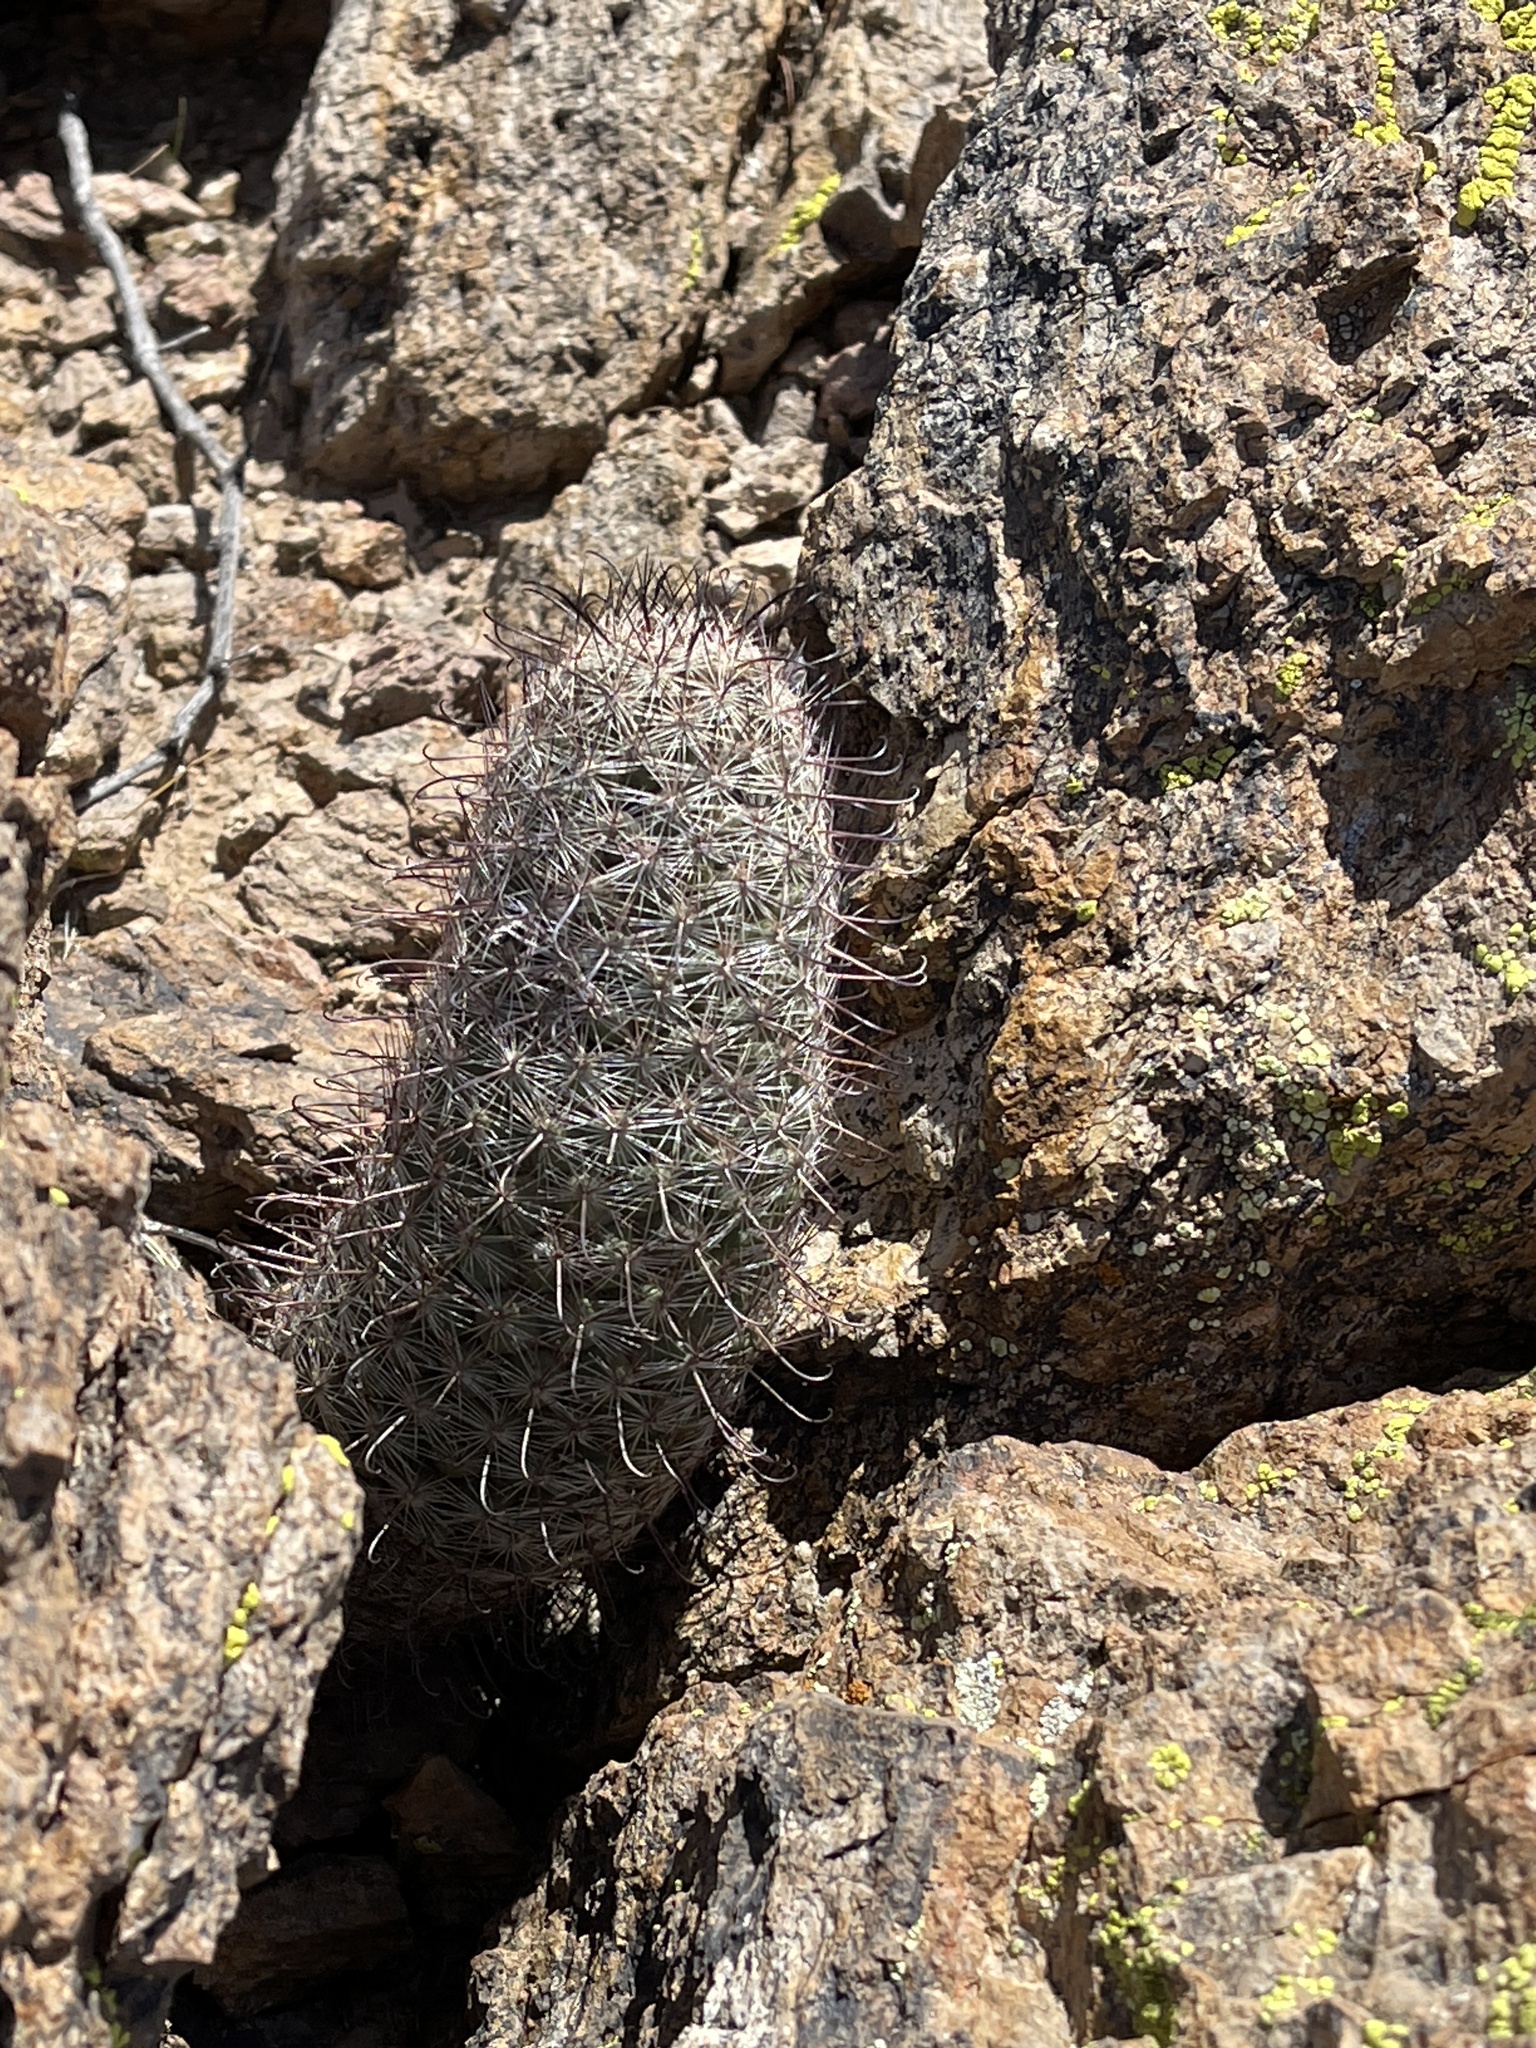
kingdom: Plantae
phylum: Tracheophyta
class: Magnoliopsida
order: Caryophyllales
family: Cactaceae
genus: Cochemiea
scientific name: Cochemiea grahamii
